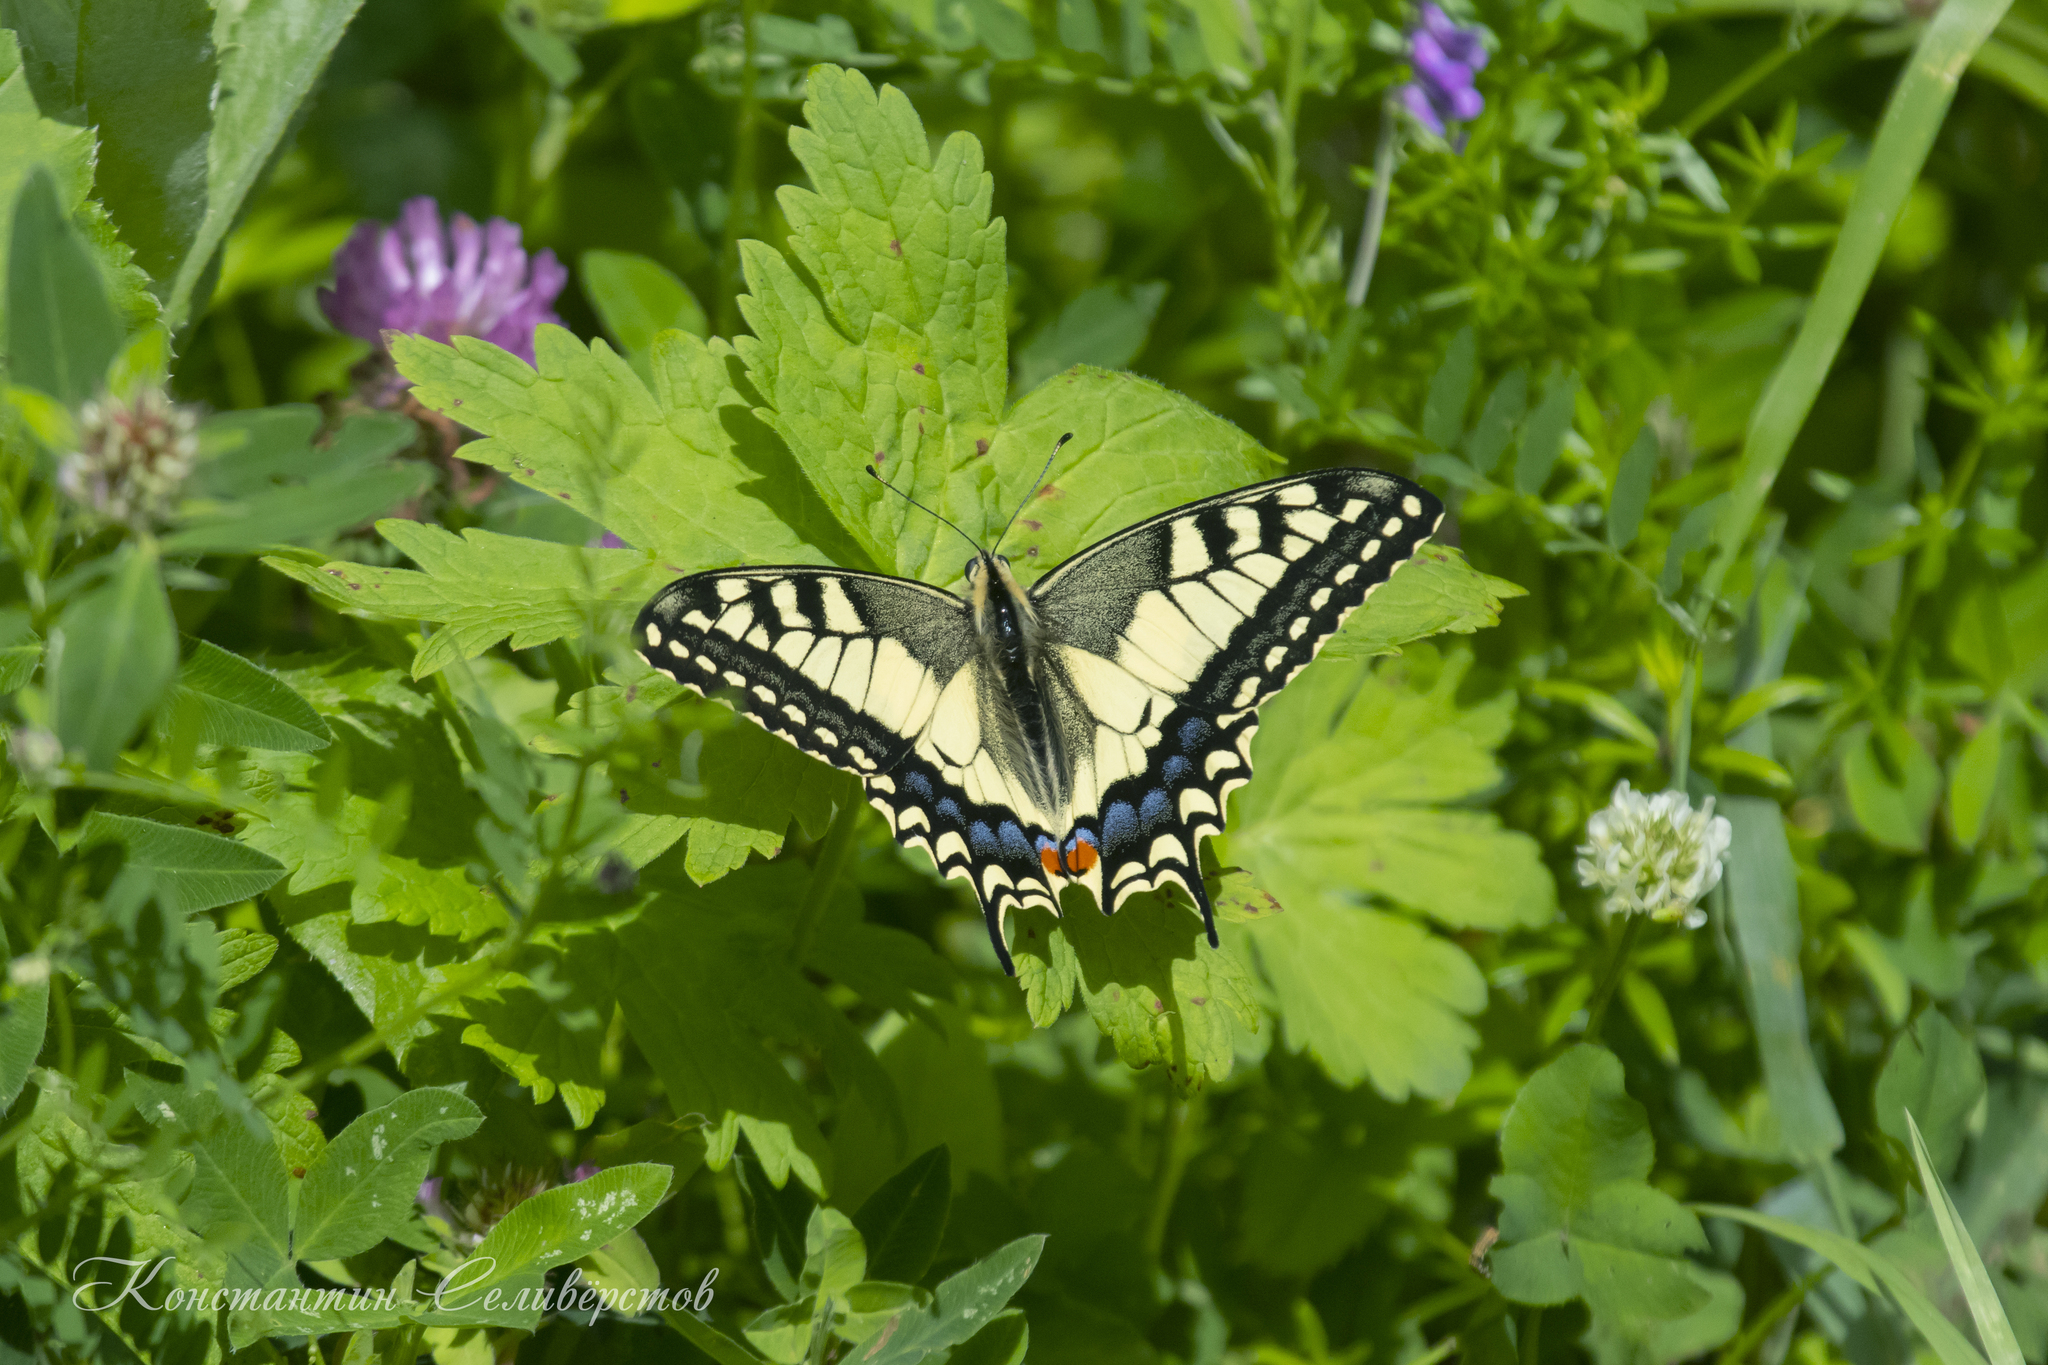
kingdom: Animalia
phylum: Arthropoda
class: Insecta
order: Lepidoptera
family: Papilionidae
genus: Papilio
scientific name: Papilio machaon
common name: Swallowtail
